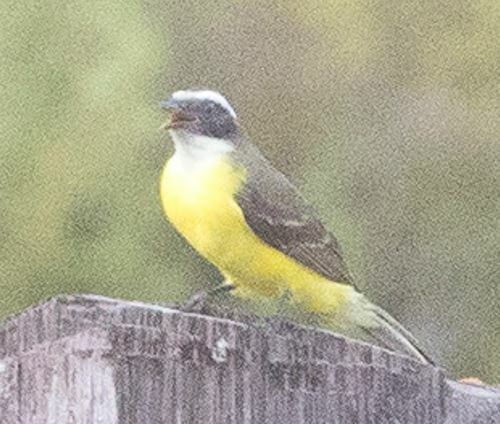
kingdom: Animalia
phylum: Chordata
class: Aves
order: Passeriformes
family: Tyrannidae
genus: Myiozetetes
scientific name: Myiozetetes similis
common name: Social flycatcher
